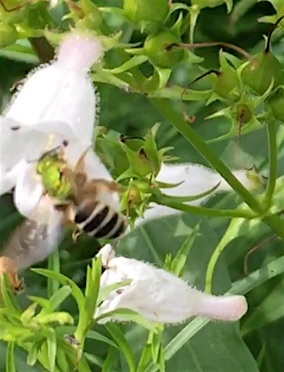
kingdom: Animalia
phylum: Arthropoda
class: Insecta
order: Hymenoptera
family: Halictidae
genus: Agapostemon
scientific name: Agapostemon virescens
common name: Bicolored striped sweat bee
